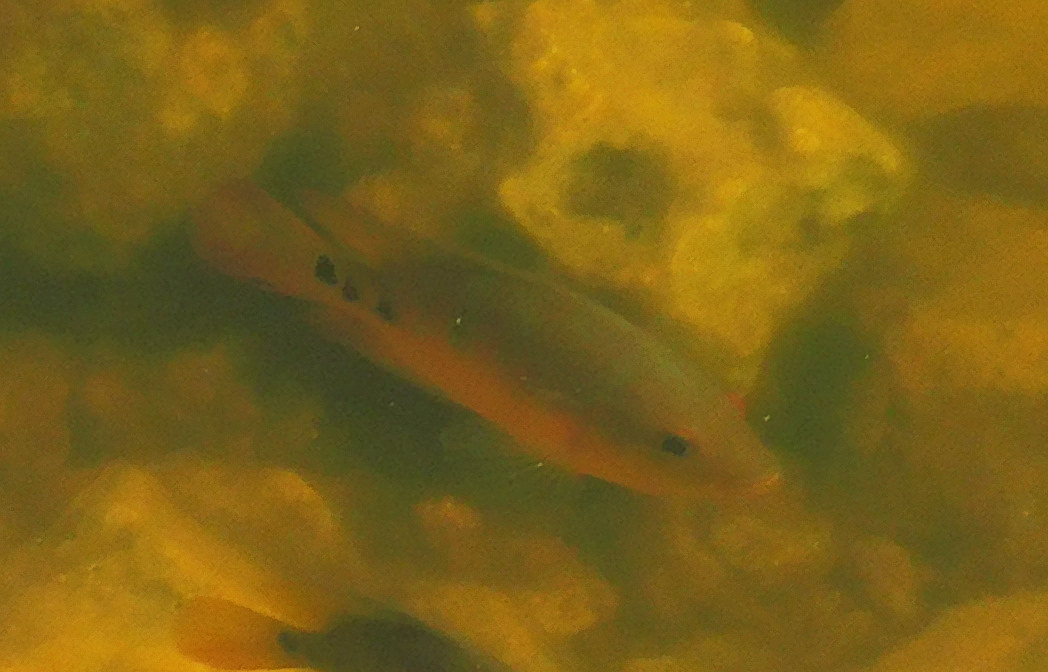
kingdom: Animalia
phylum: Chordata
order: Perciformes
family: Cichlidae
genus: Mayaheros
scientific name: Mayaheros urophthalmus
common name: Mayan cichlid
